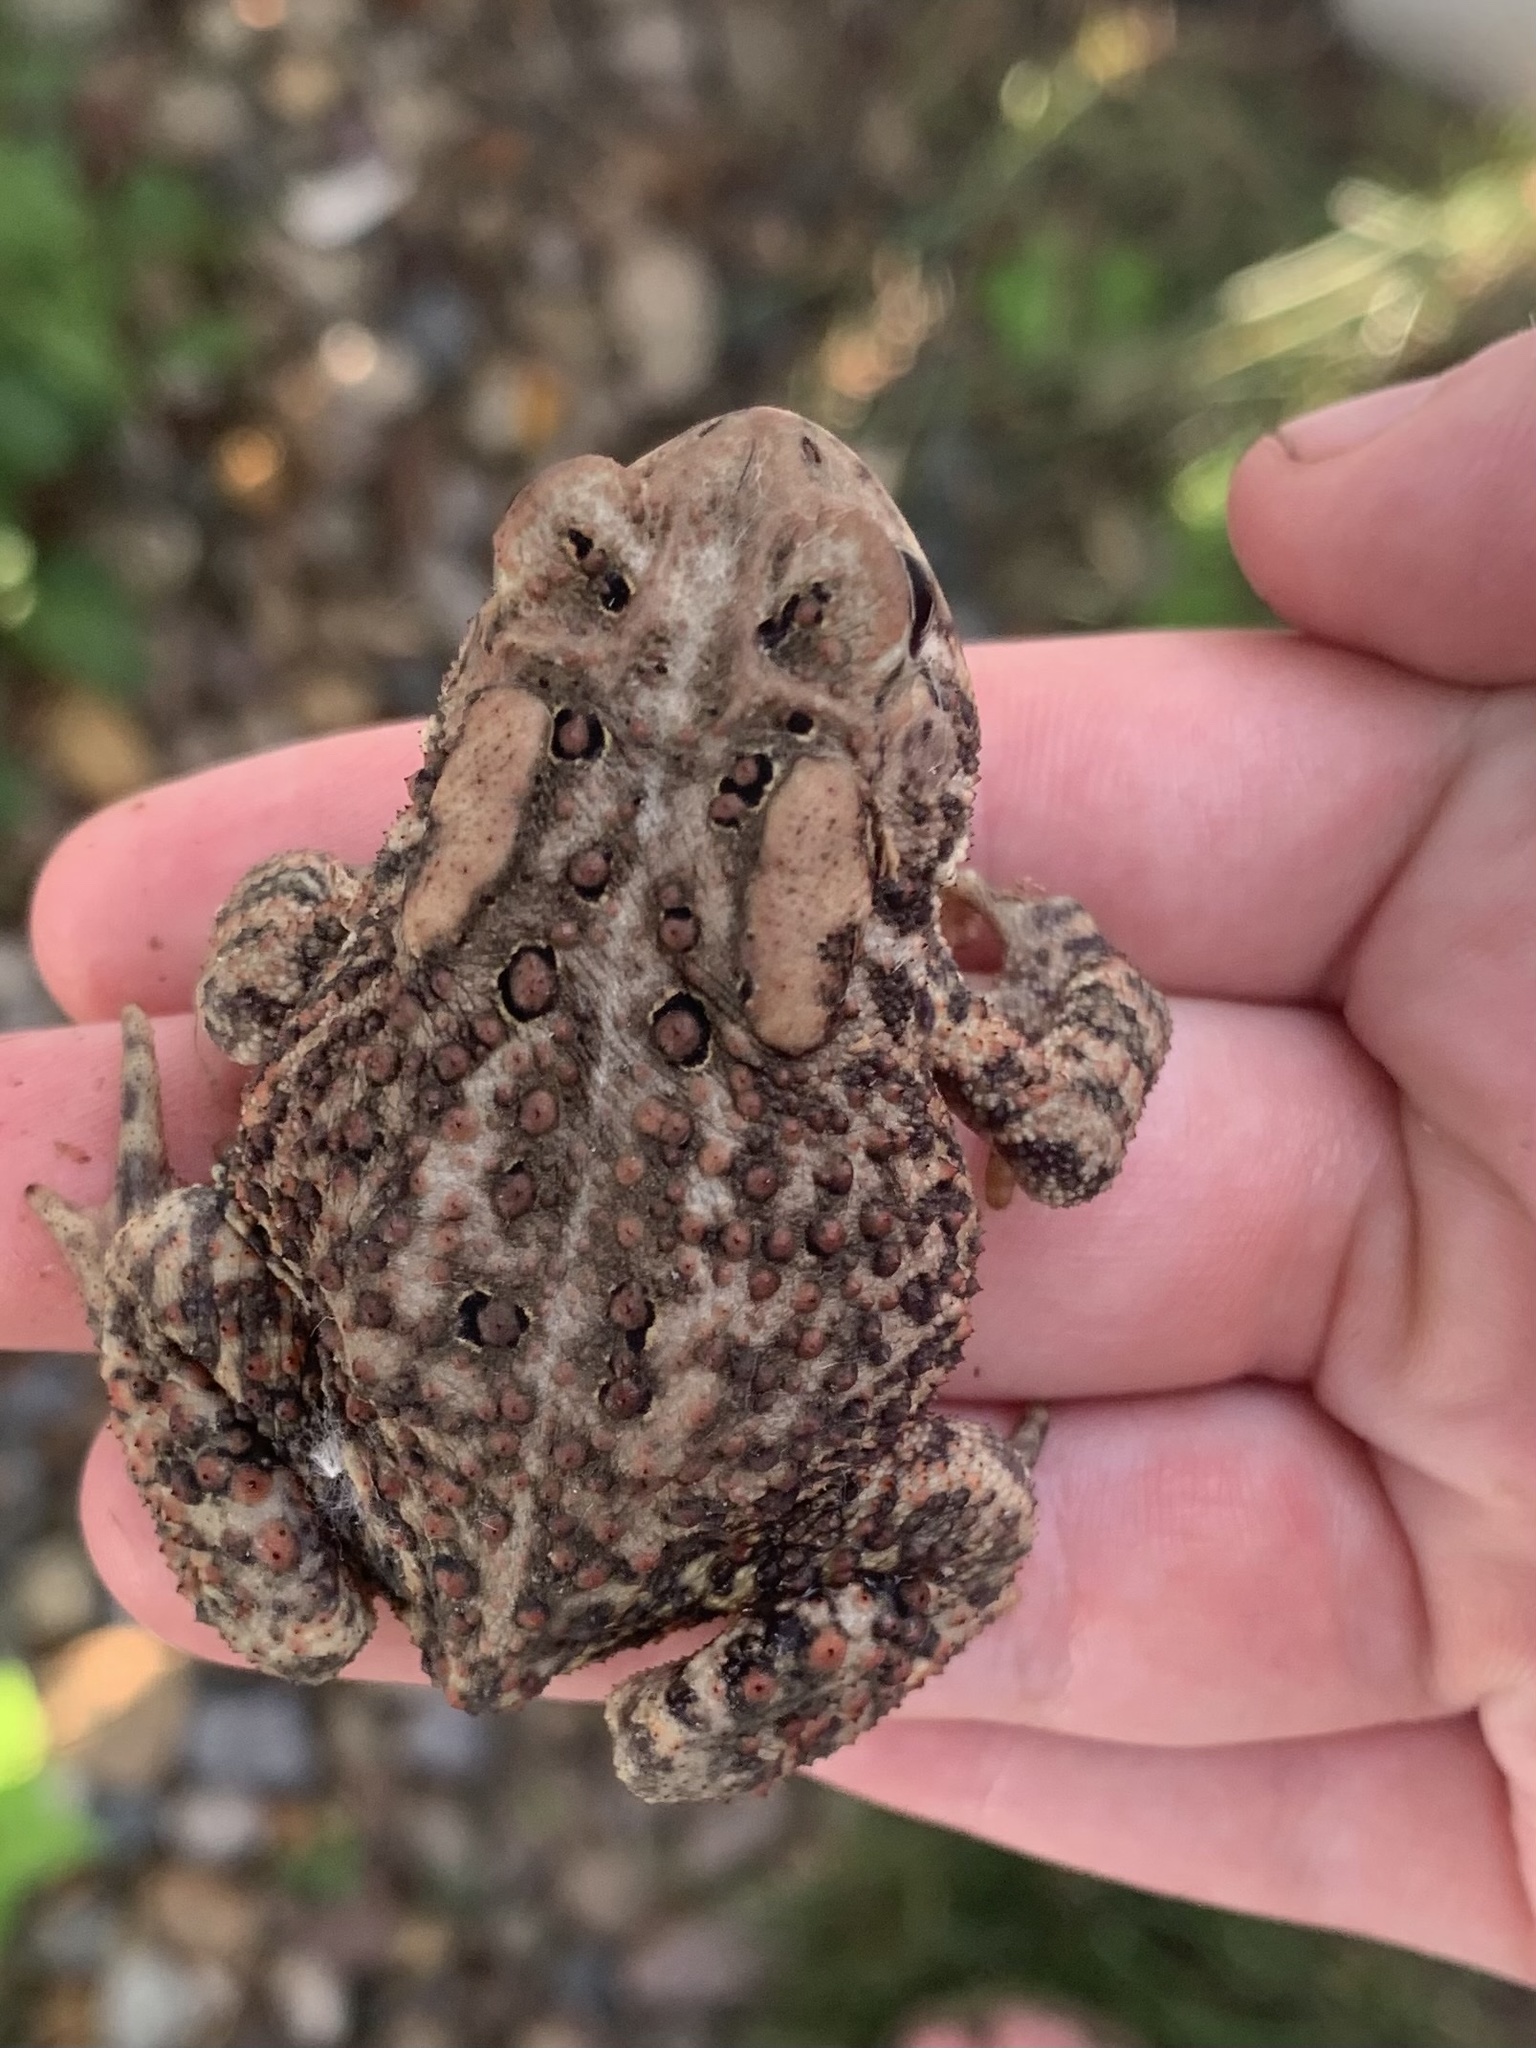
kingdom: Animalia
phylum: Chordata
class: Amphibia
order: Anura
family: Bufonidae
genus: Anaxyrus
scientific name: Anaxyrus americanus
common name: American toad
